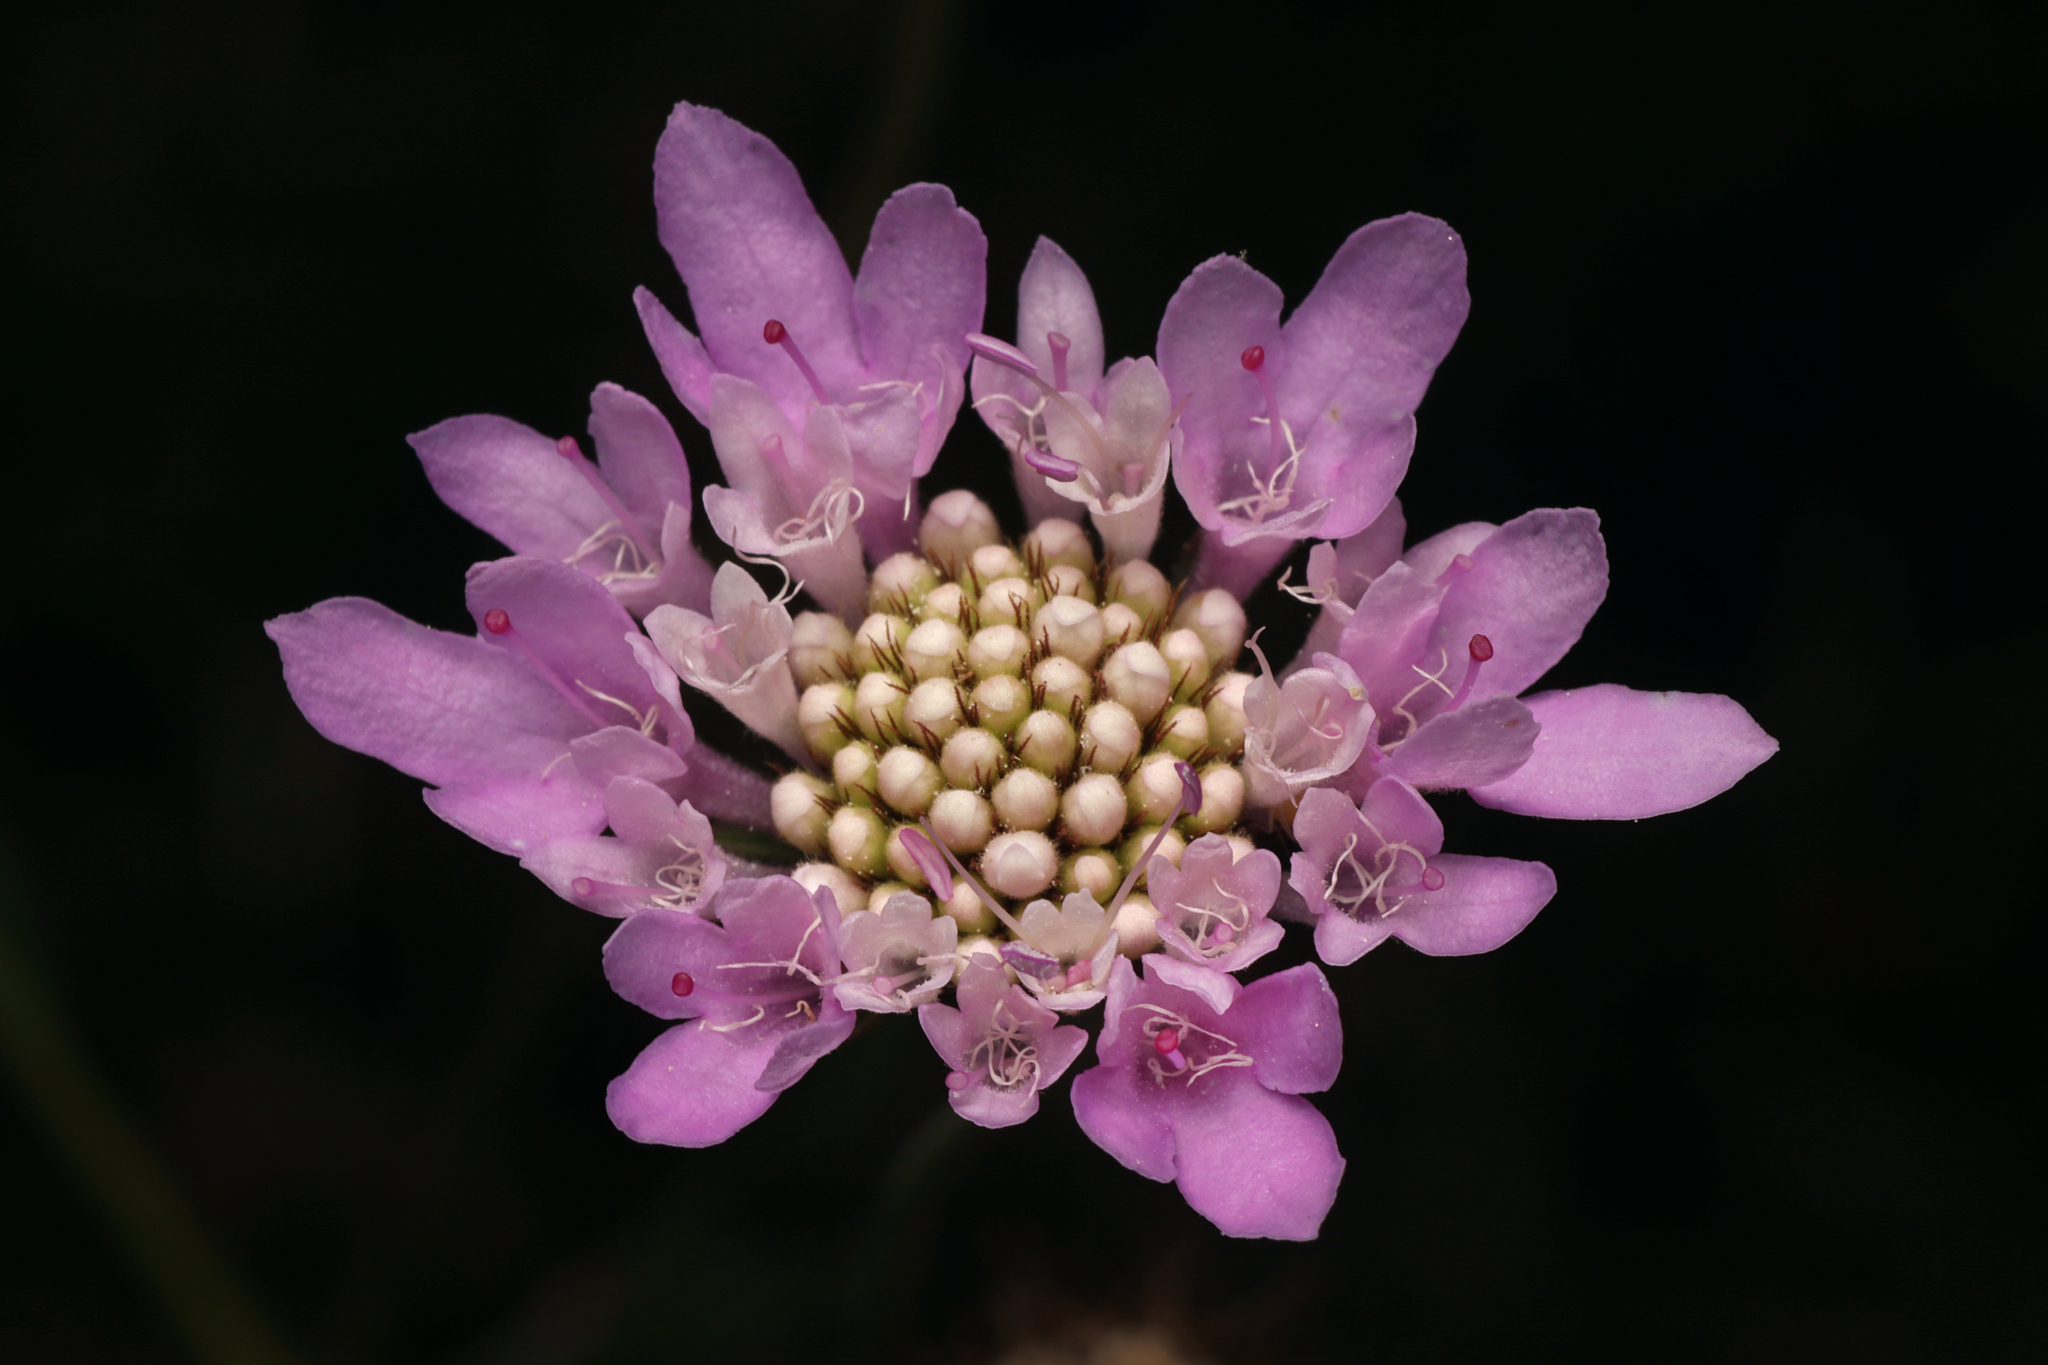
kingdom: Plantae
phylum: Tracheophyta
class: Magnoliopsida
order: Dipsacales
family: Caprifoliaceae
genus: Sixalix
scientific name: Sixalix atropurpurea
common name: Sweet scabious
